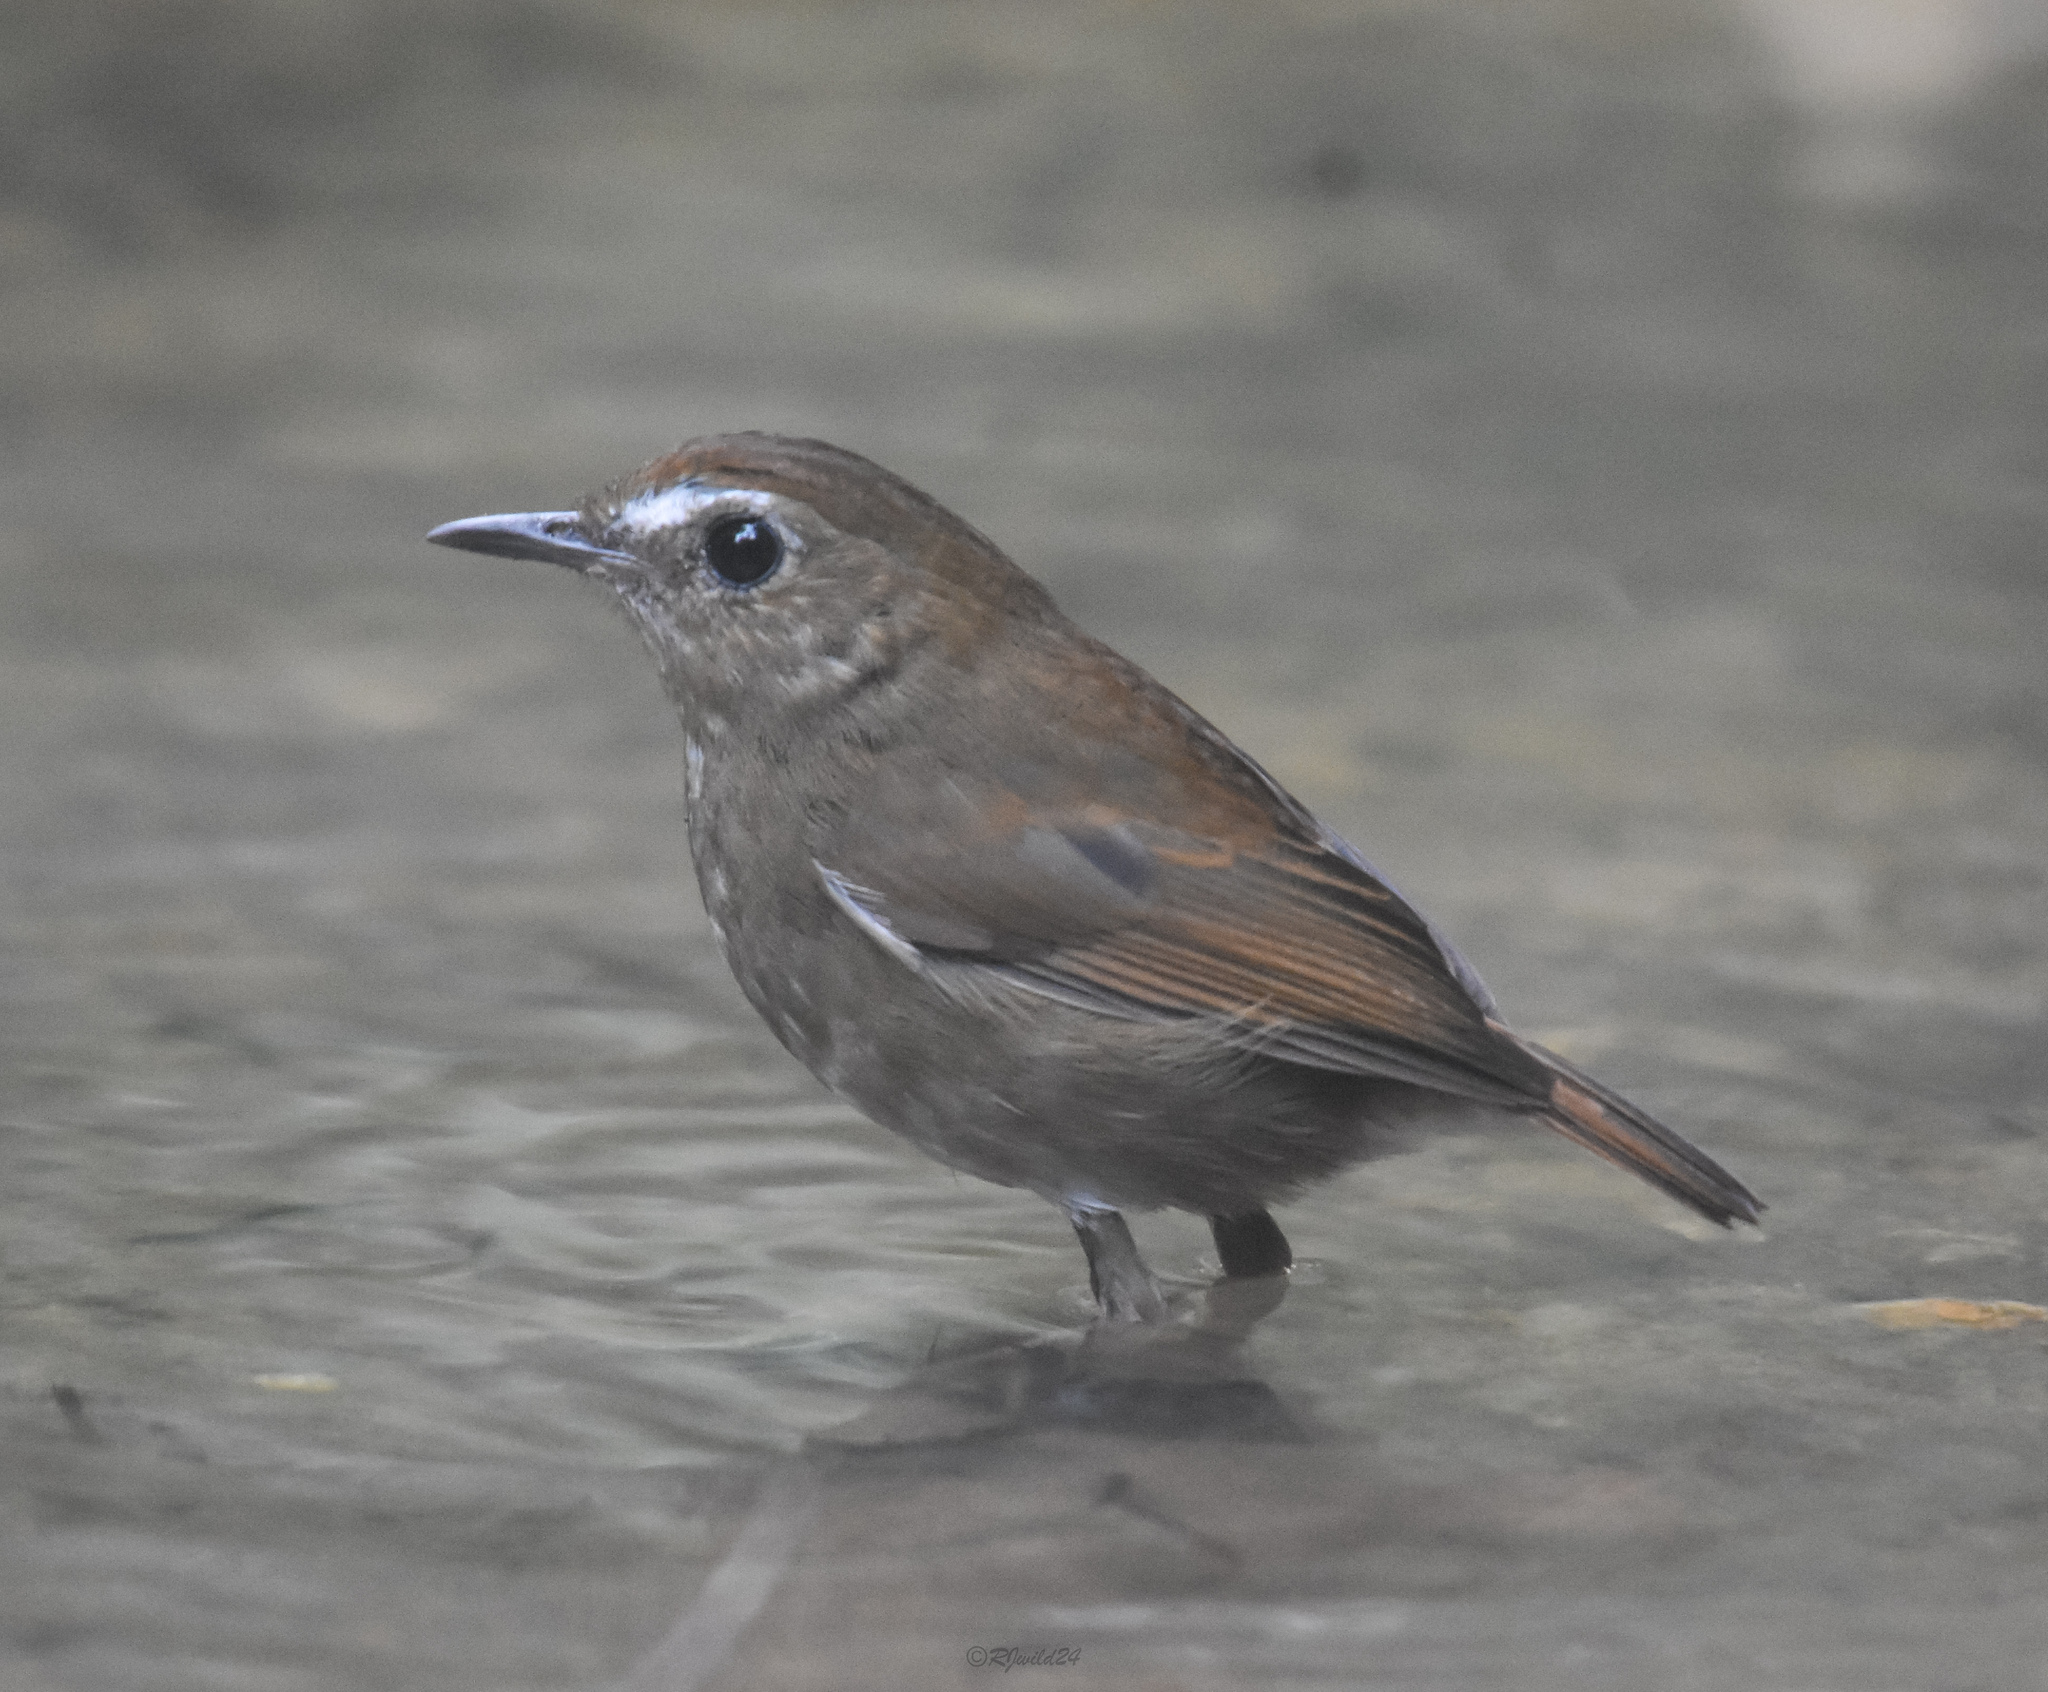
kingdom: Animalia
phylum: Chordata
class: Aves
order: Passeriformes
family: Muscicapidae
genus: Brachypteryx
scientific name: Brachypteryx leucophris
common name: Lesser shortwing
